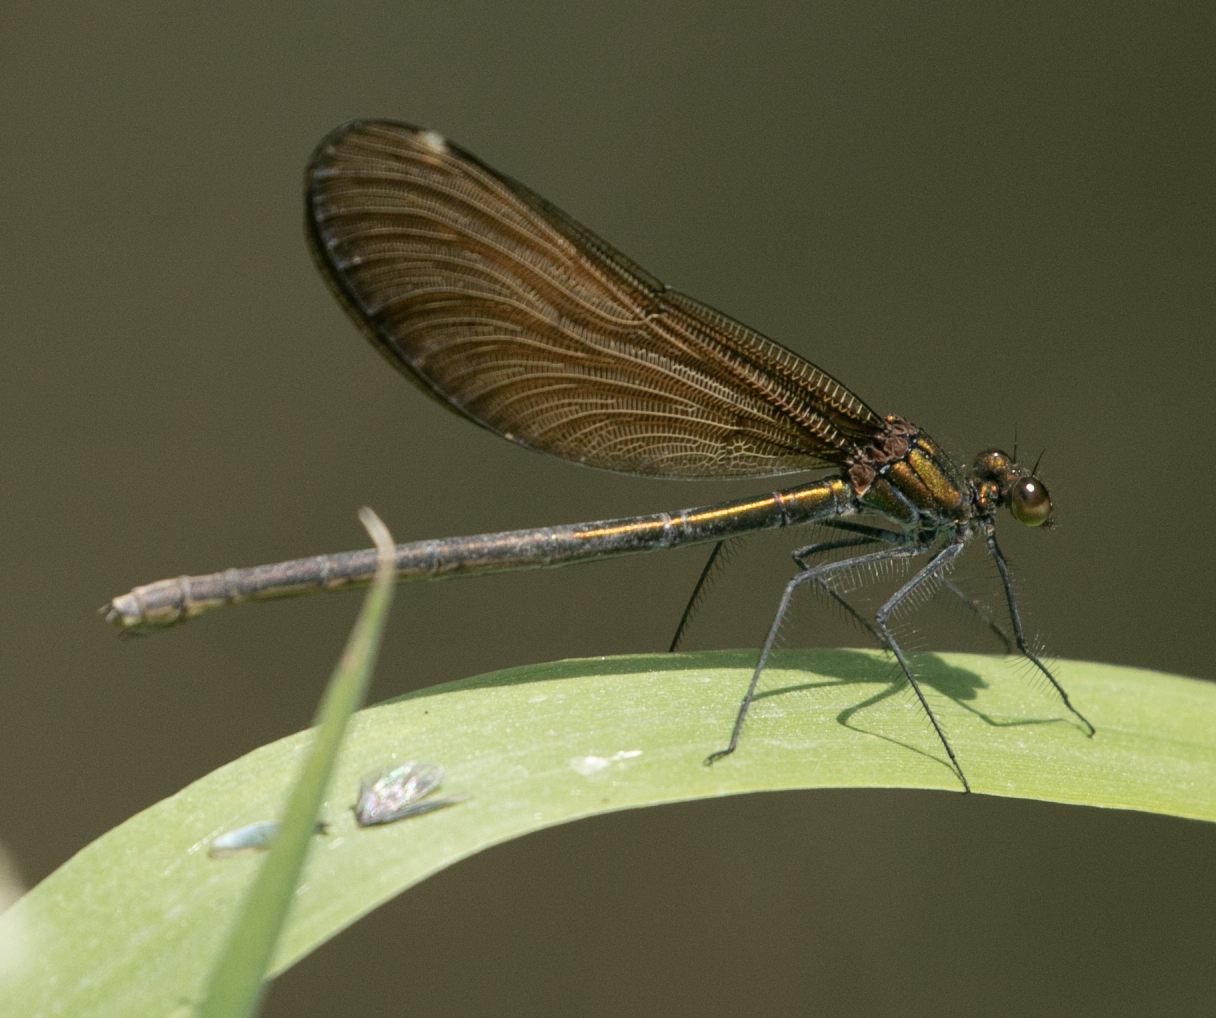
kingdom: Animalia
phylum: Arthropoda
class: Insecta
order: Odonata
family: Calopterygidae
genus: Calopteryx
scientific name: Calopteryx virgo
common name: Beautiful demoiselle
